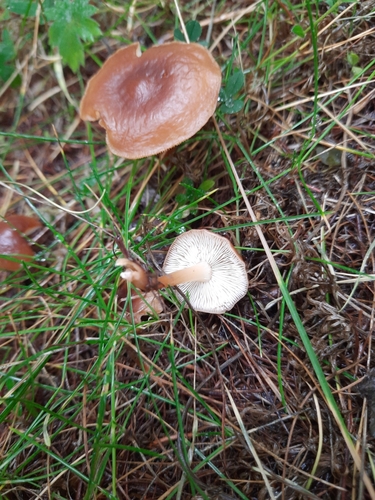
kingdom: Fungi
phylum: Basidiomycota
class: Agaricomycetes
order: Agaricales
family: Omphalotaceae
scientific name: Omphalotaceae
